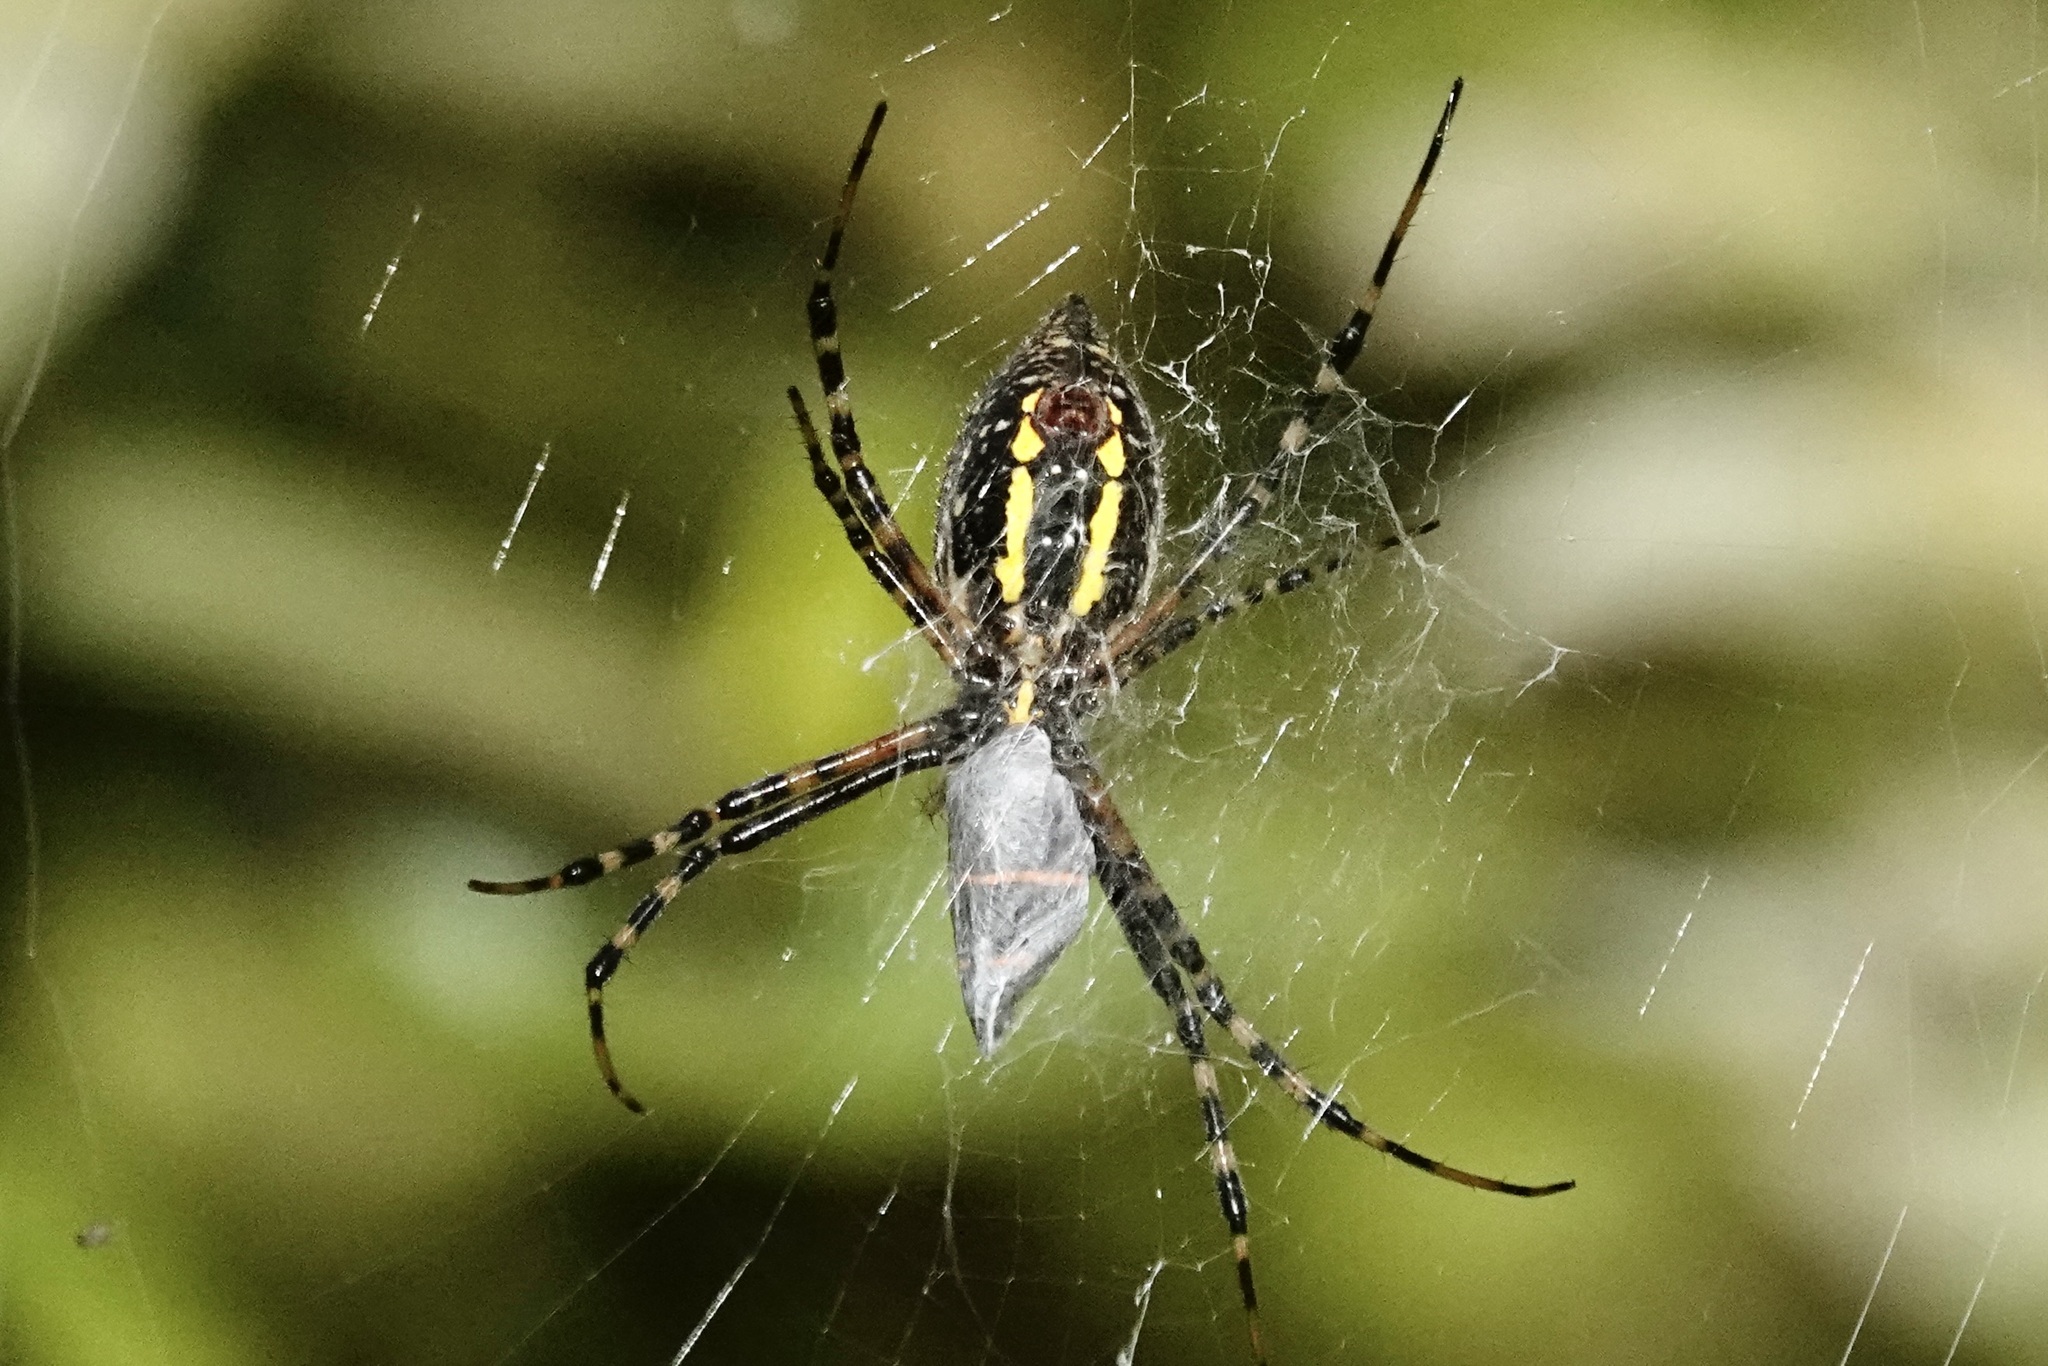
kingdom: Animalia
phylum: Arthropoda
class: Arachnida
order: Araneae
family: Araneidae
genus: Argiope
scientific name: Argiope trifasciata
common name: Banded garden spider
